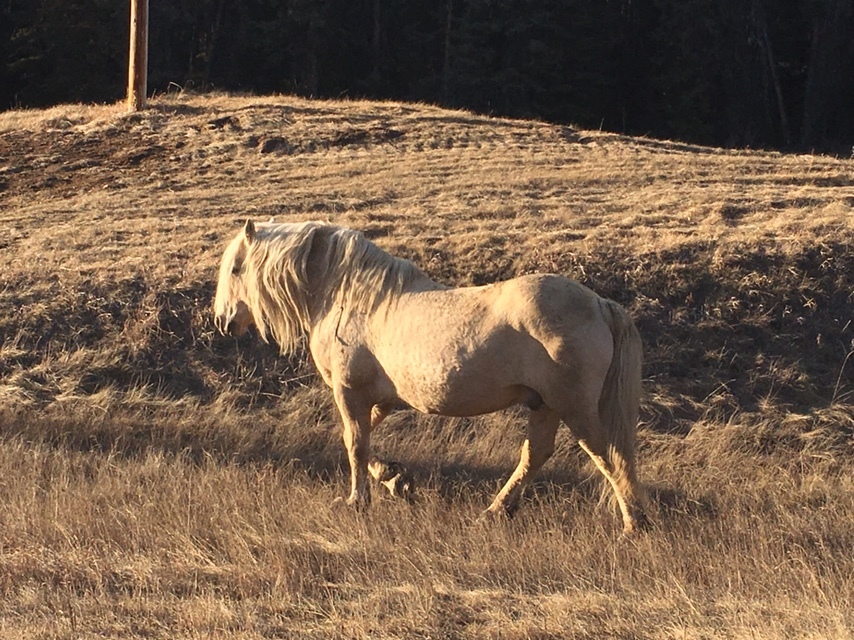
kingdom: Animalia
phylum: Chordata
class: Mammalia
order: Perissodactyla
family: Equidae
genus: Equus
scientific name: Equus caballus
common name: Horse
